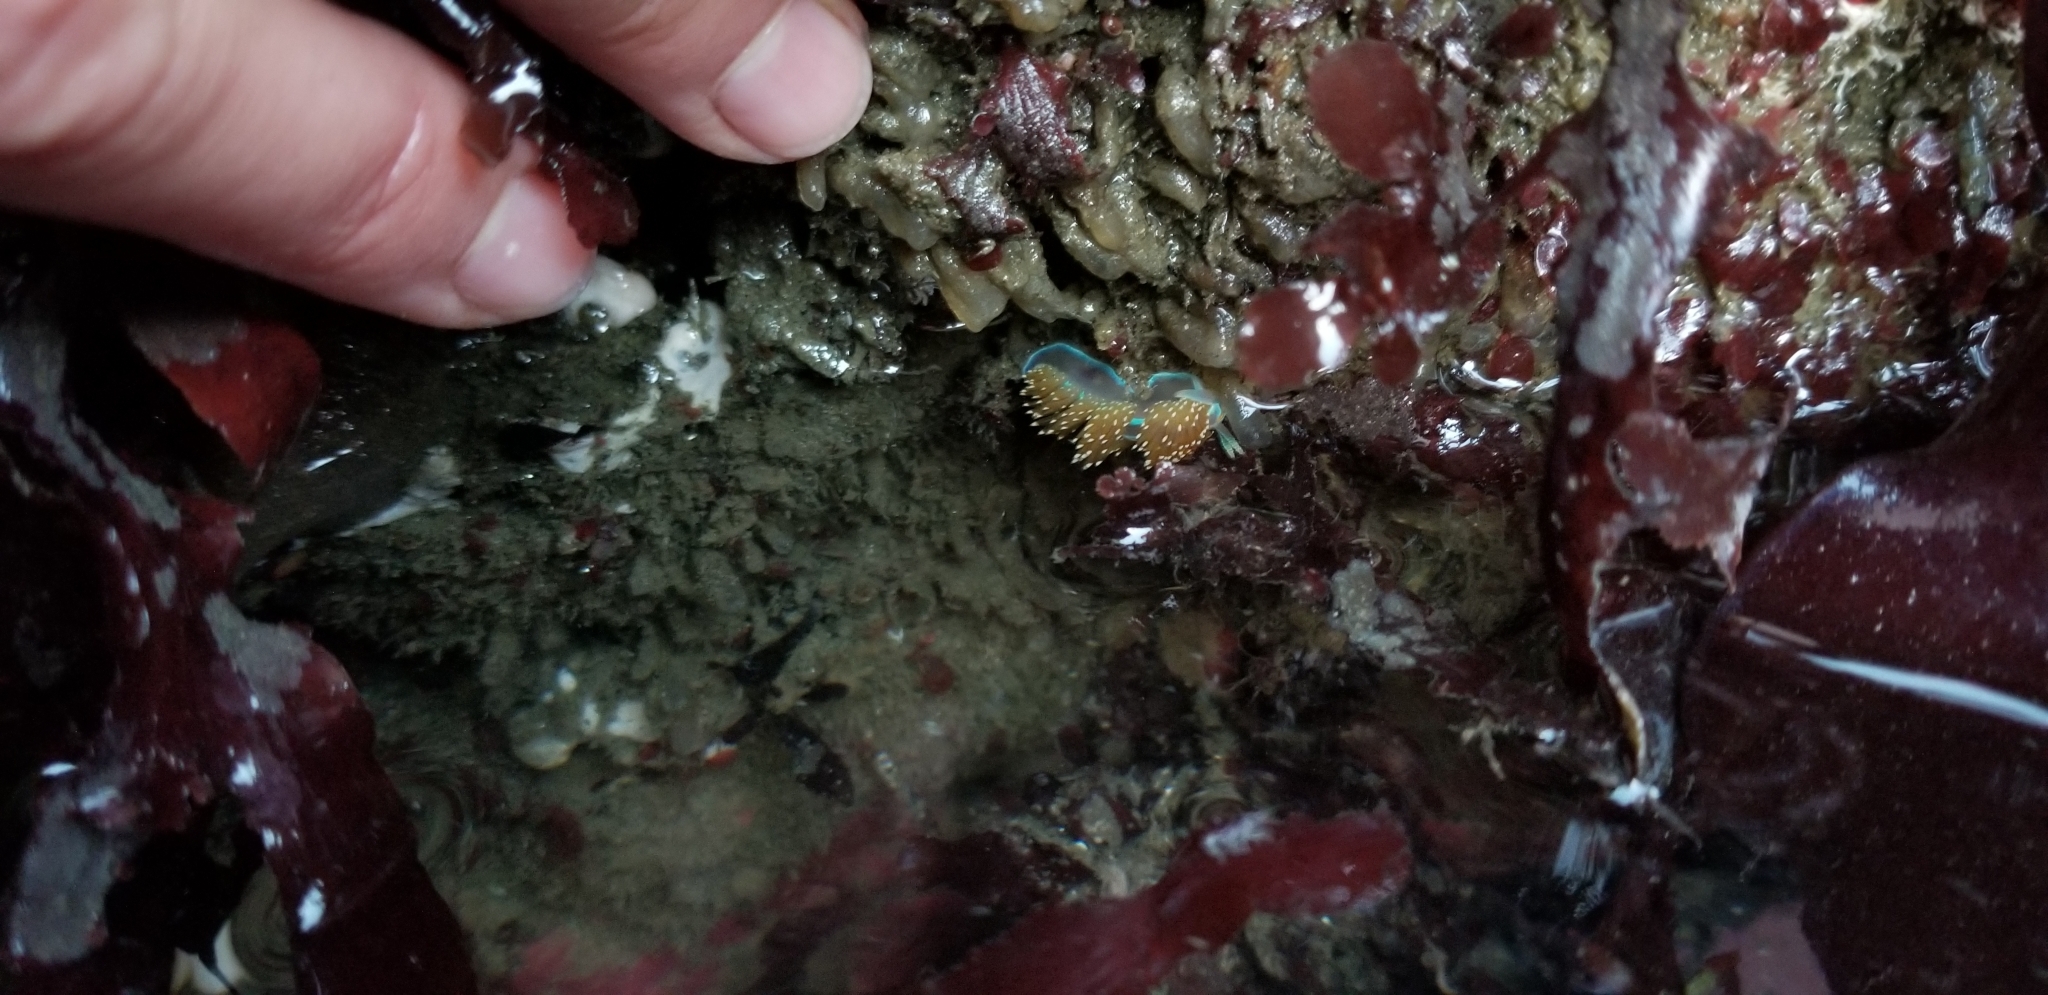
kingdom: Animalia
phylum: Mollusca
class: Gastropoda
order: Nudibranchia
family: Myrrhinidae
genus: Hermissenda
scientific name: Hermissenda opalescens
